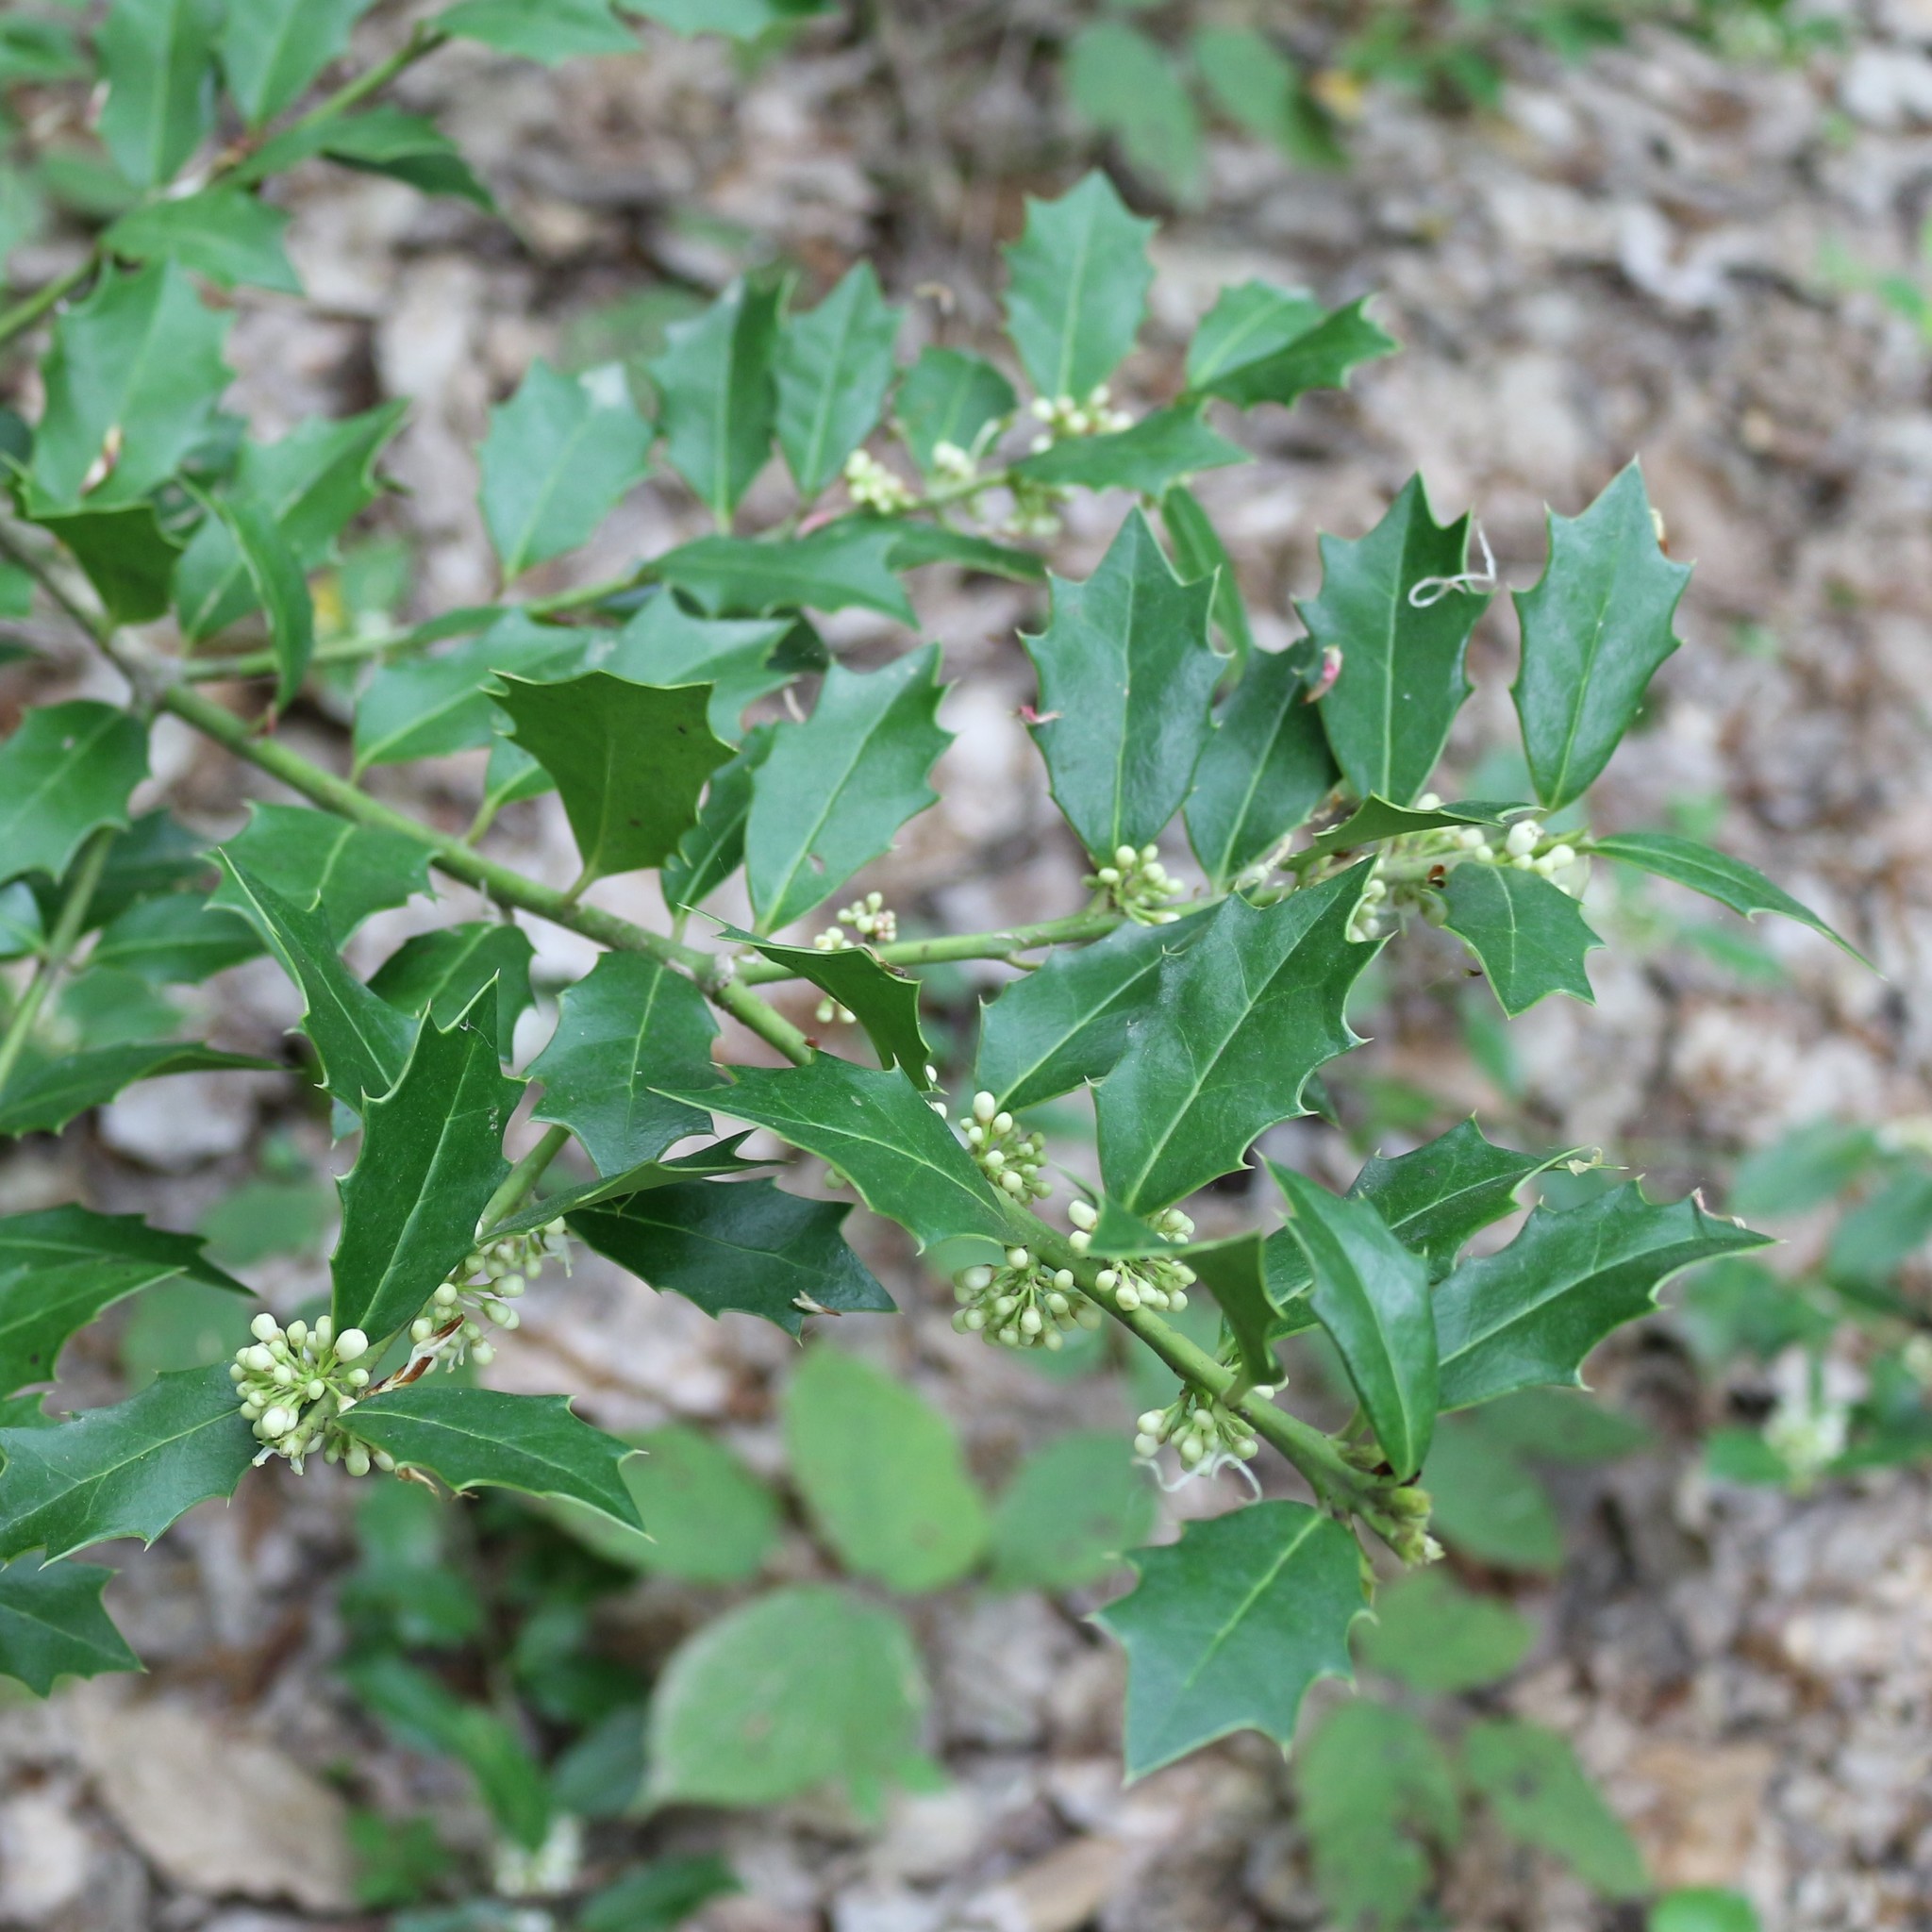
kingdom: Plantae
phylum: Tracheophyta
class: Magnoliopsida
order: Aquifoliales
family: Aquifoliaceae
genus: Ilex
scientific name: Ilex colchica
